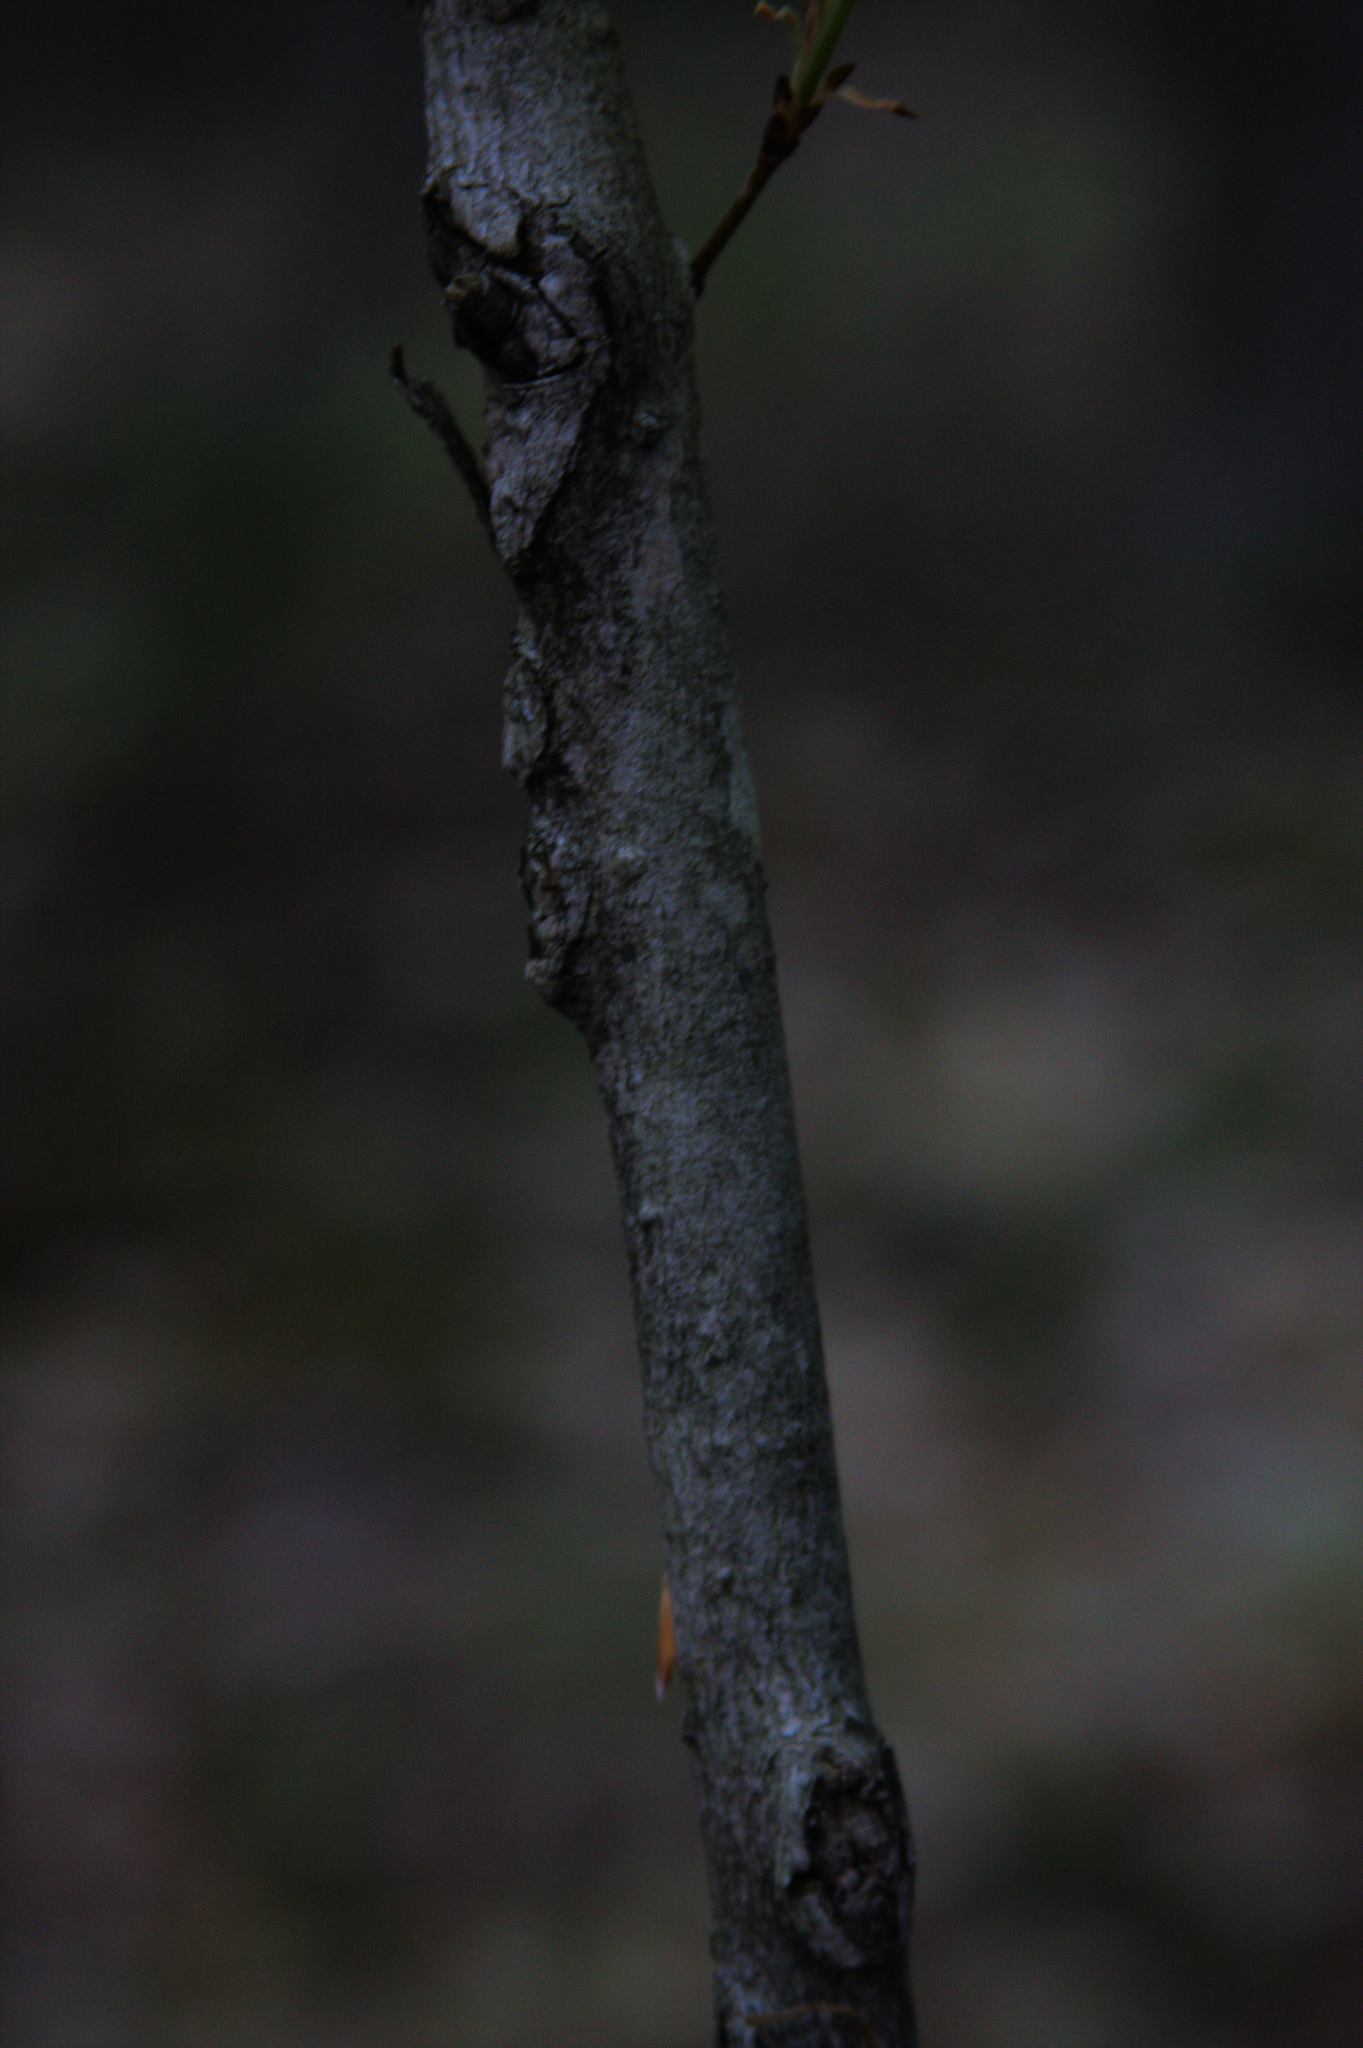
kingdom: Plantae
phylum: Tracheophyta
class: Magnoliopsida
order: Sapindales
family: Sapindaceae
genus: Acer
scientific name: Acer saccharum
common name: Sugar maple
